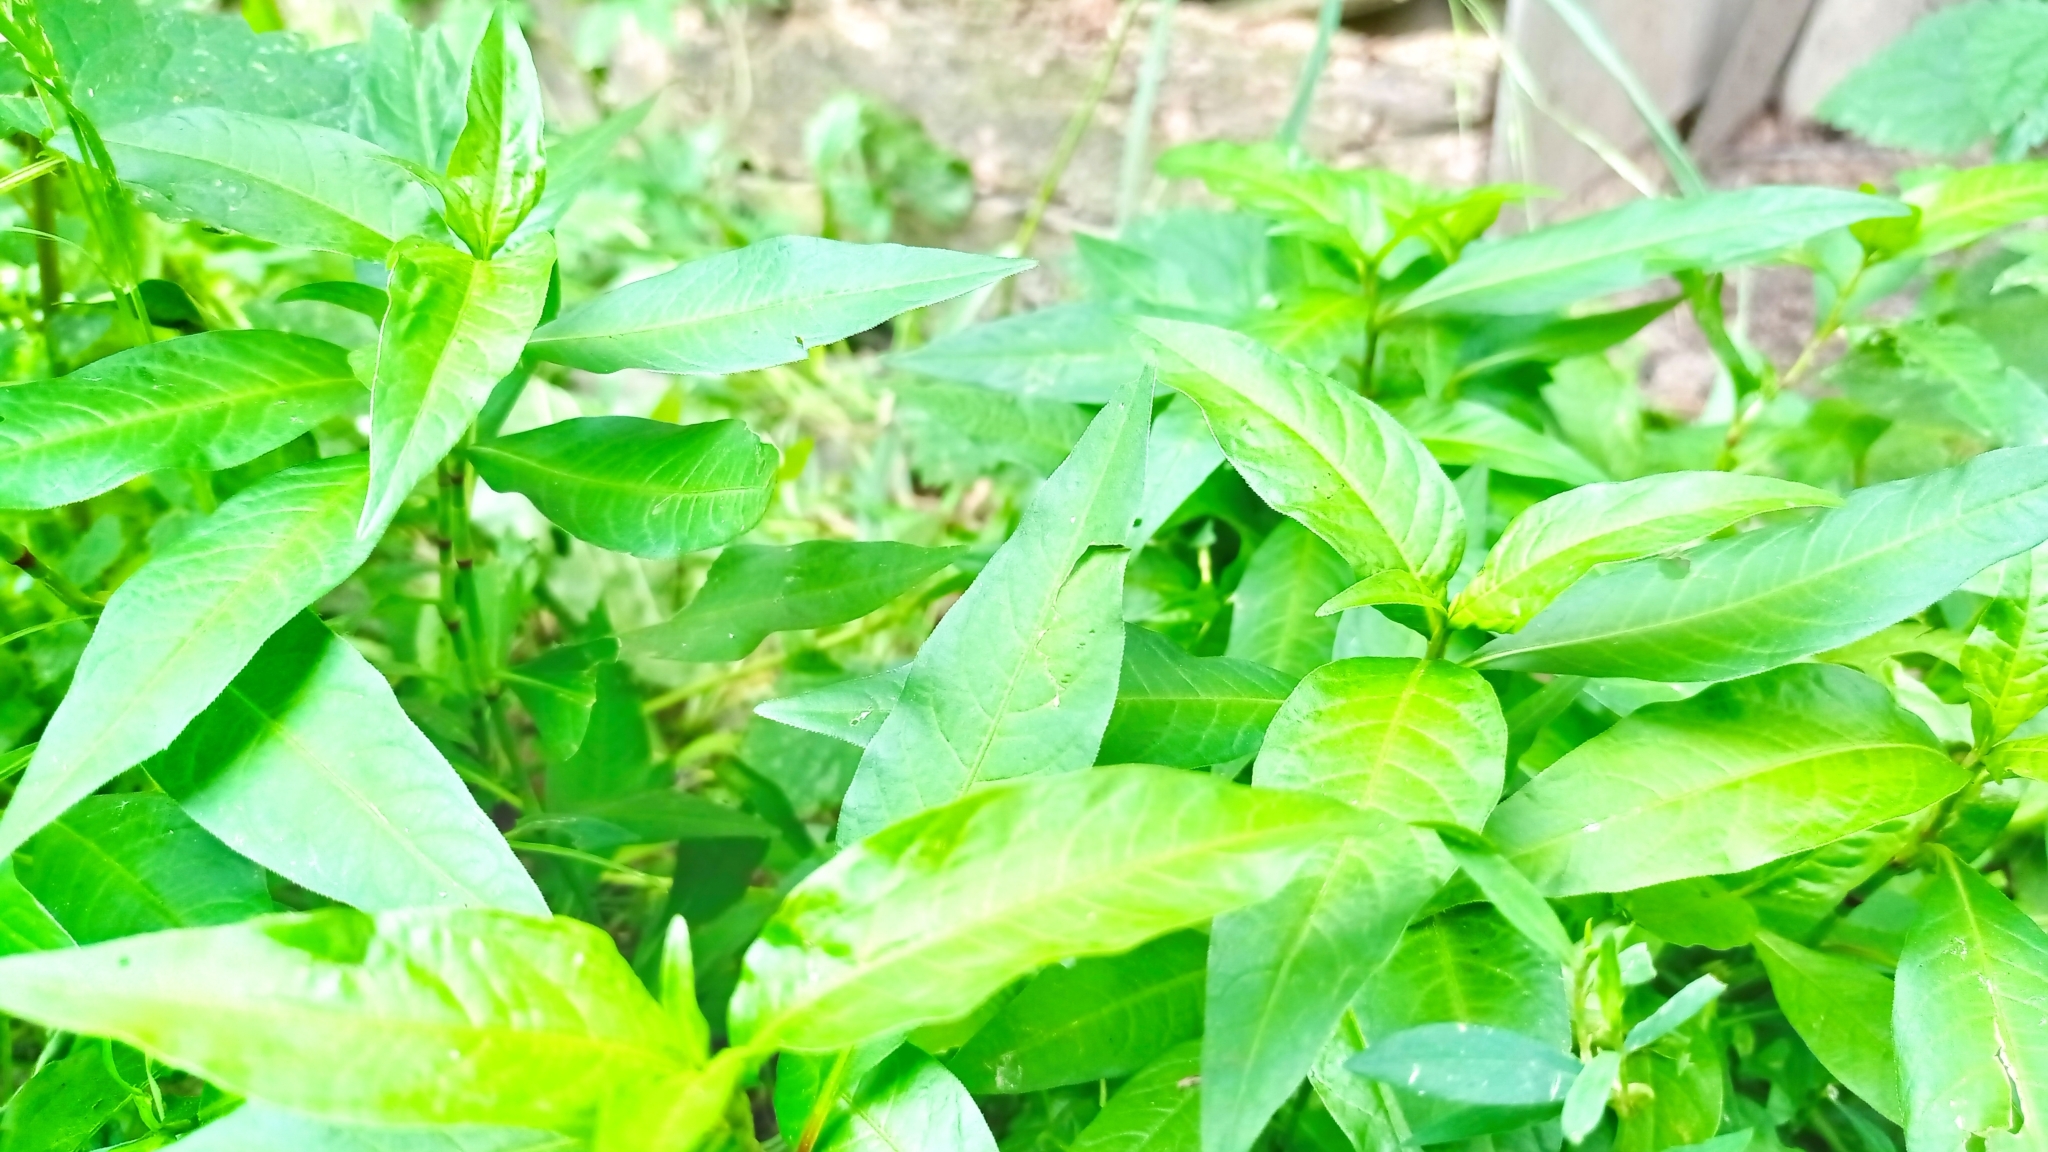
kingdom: Plantae
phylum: Tracheophyta
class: Magnoliopsida
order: Caryophyllales
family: Polygonaceae
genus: Persicaria
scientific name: Persicaria lapathifolia
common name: Curlytop knotweed
